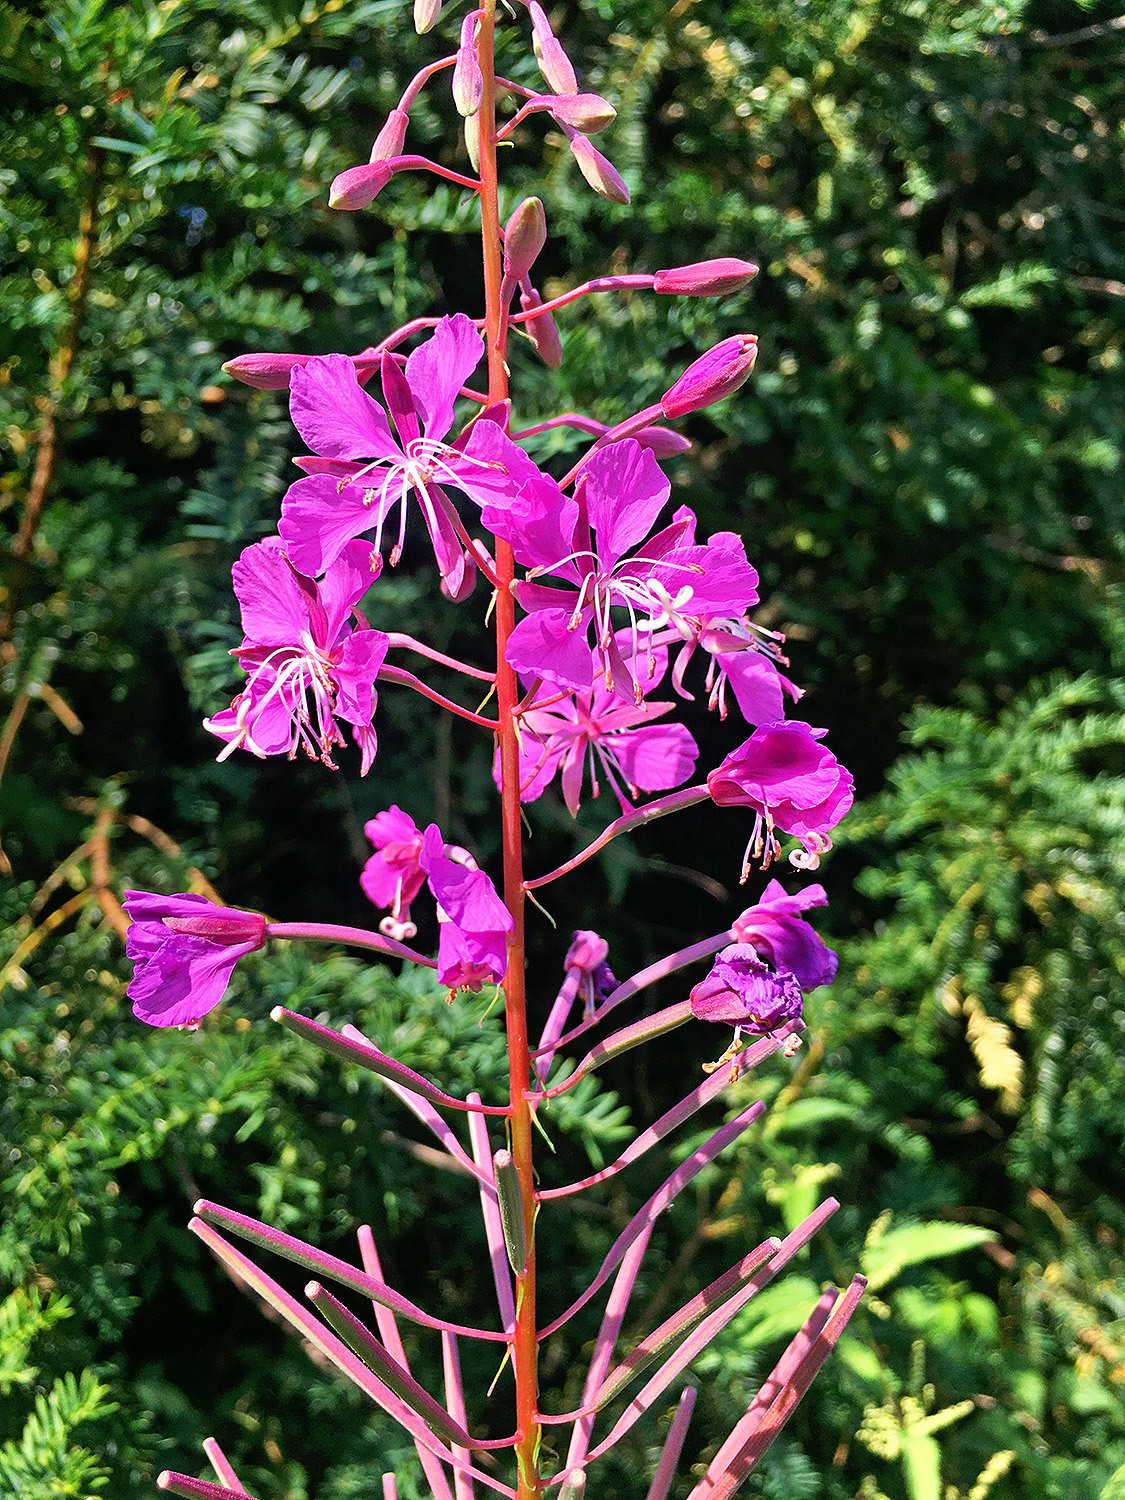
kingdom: Plantae
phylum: Tracheophyta
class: Magnoliopsida
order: Myrtales
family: Onagraceae
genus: Chamaenerion
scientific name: Chamaenerion angustifolium
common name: Fireweed
